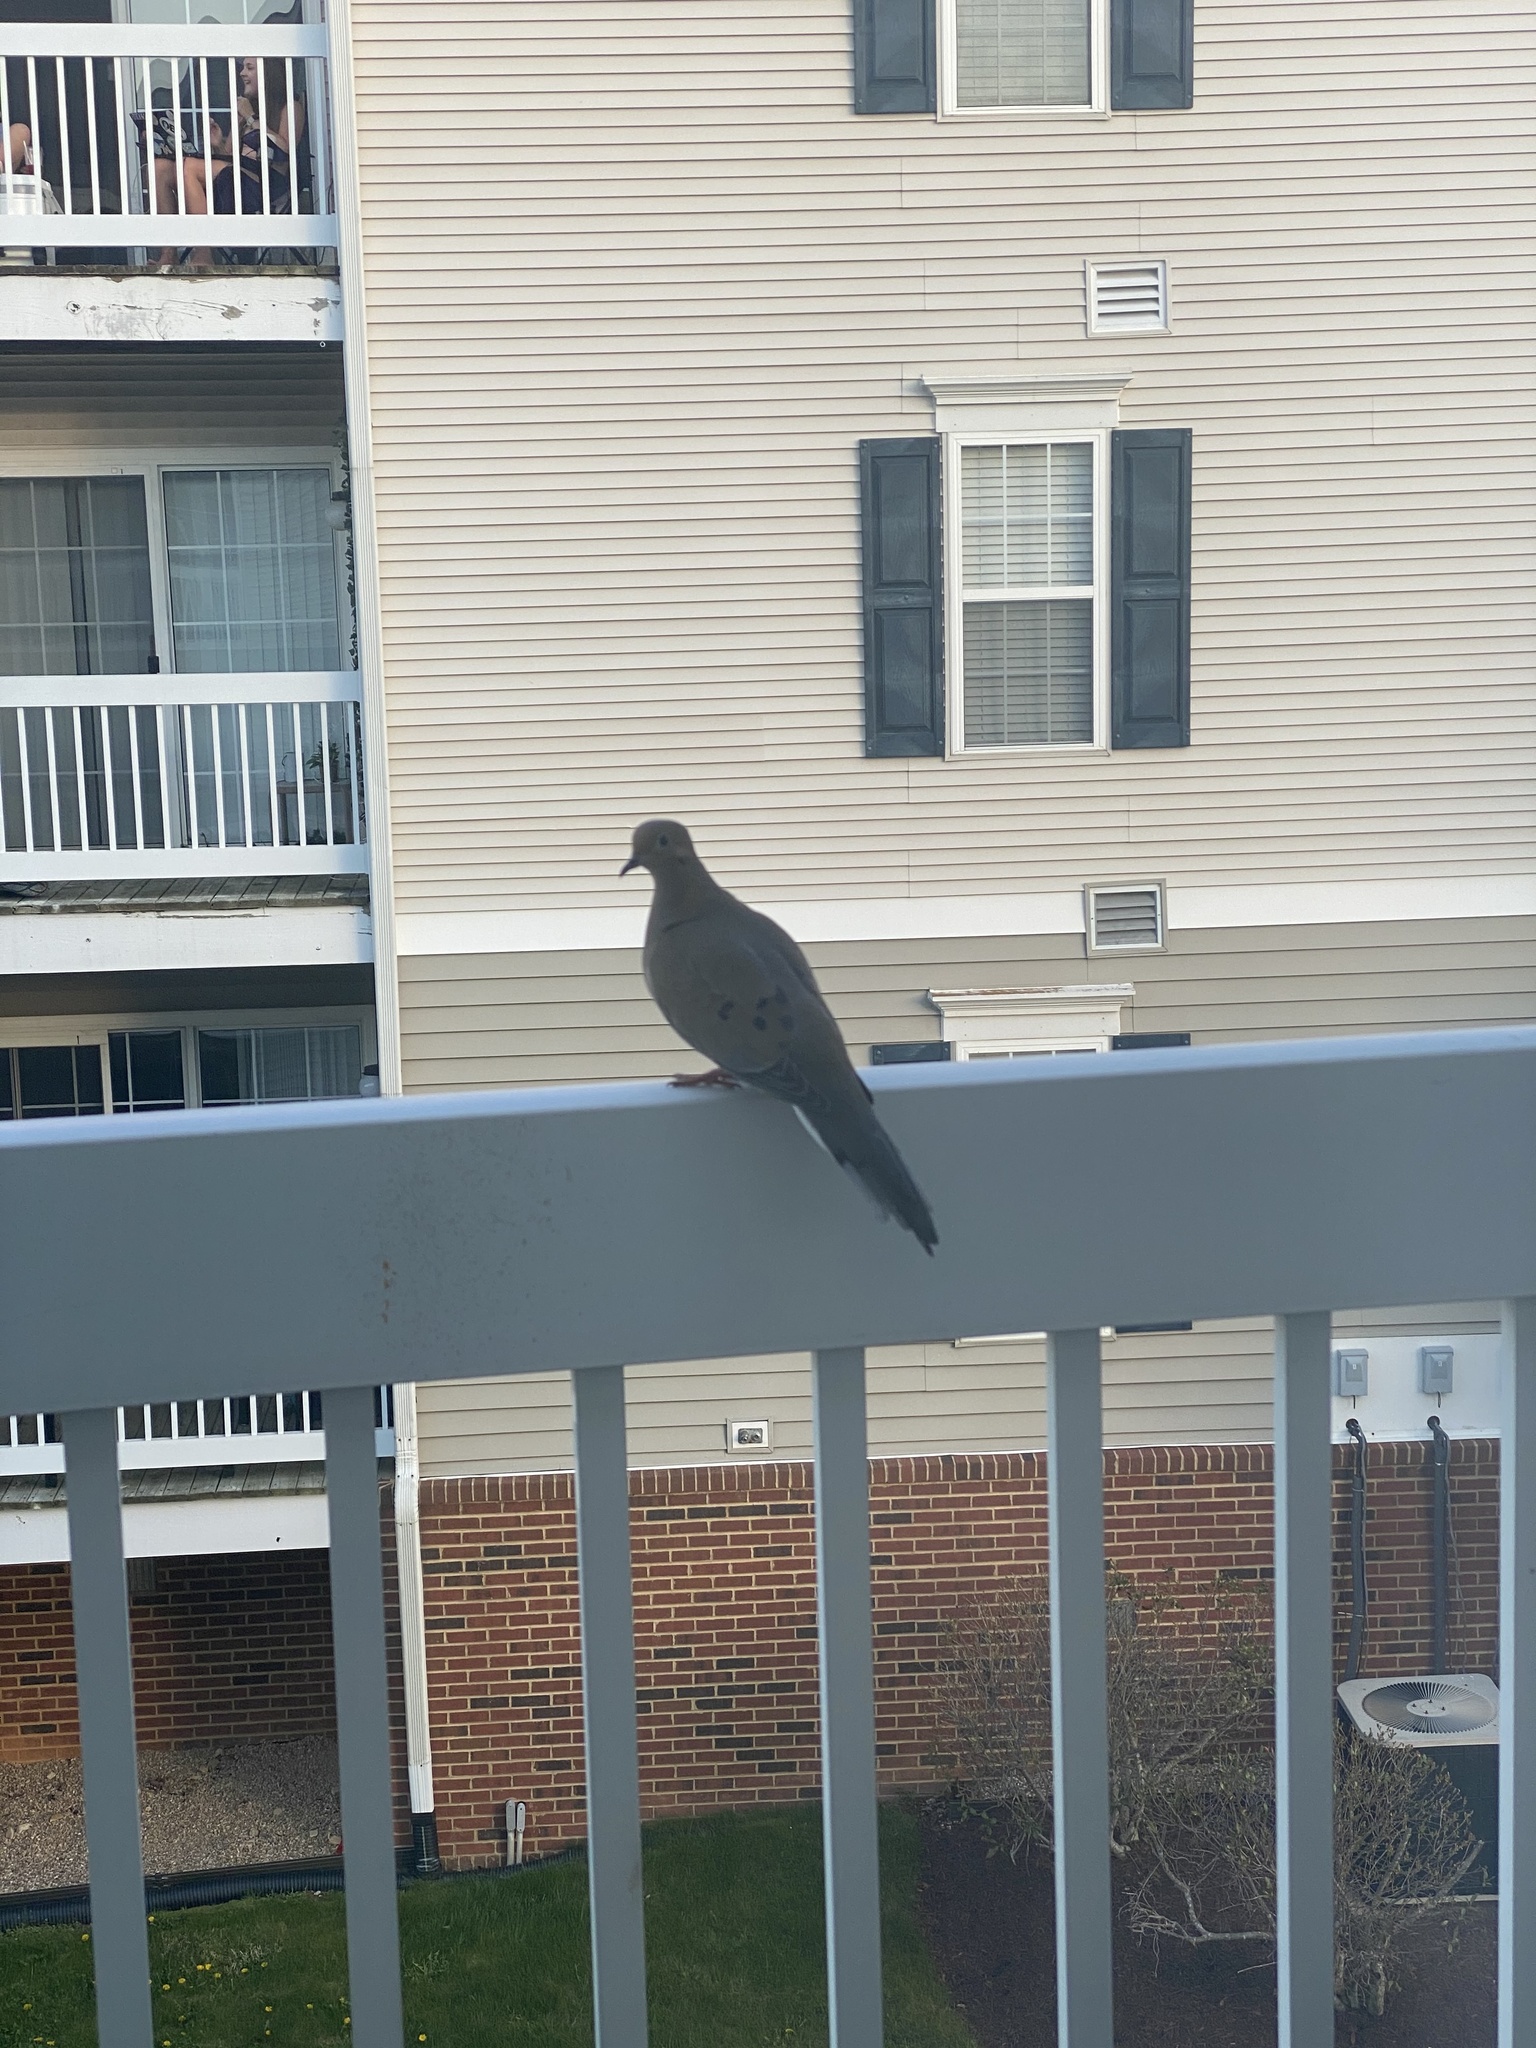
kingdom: Animalia
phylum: Chordata
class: Aves
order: Columbiformes
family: Columbidae
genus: Zenaida
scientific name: Zenaida macroura
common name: Mourning dove
